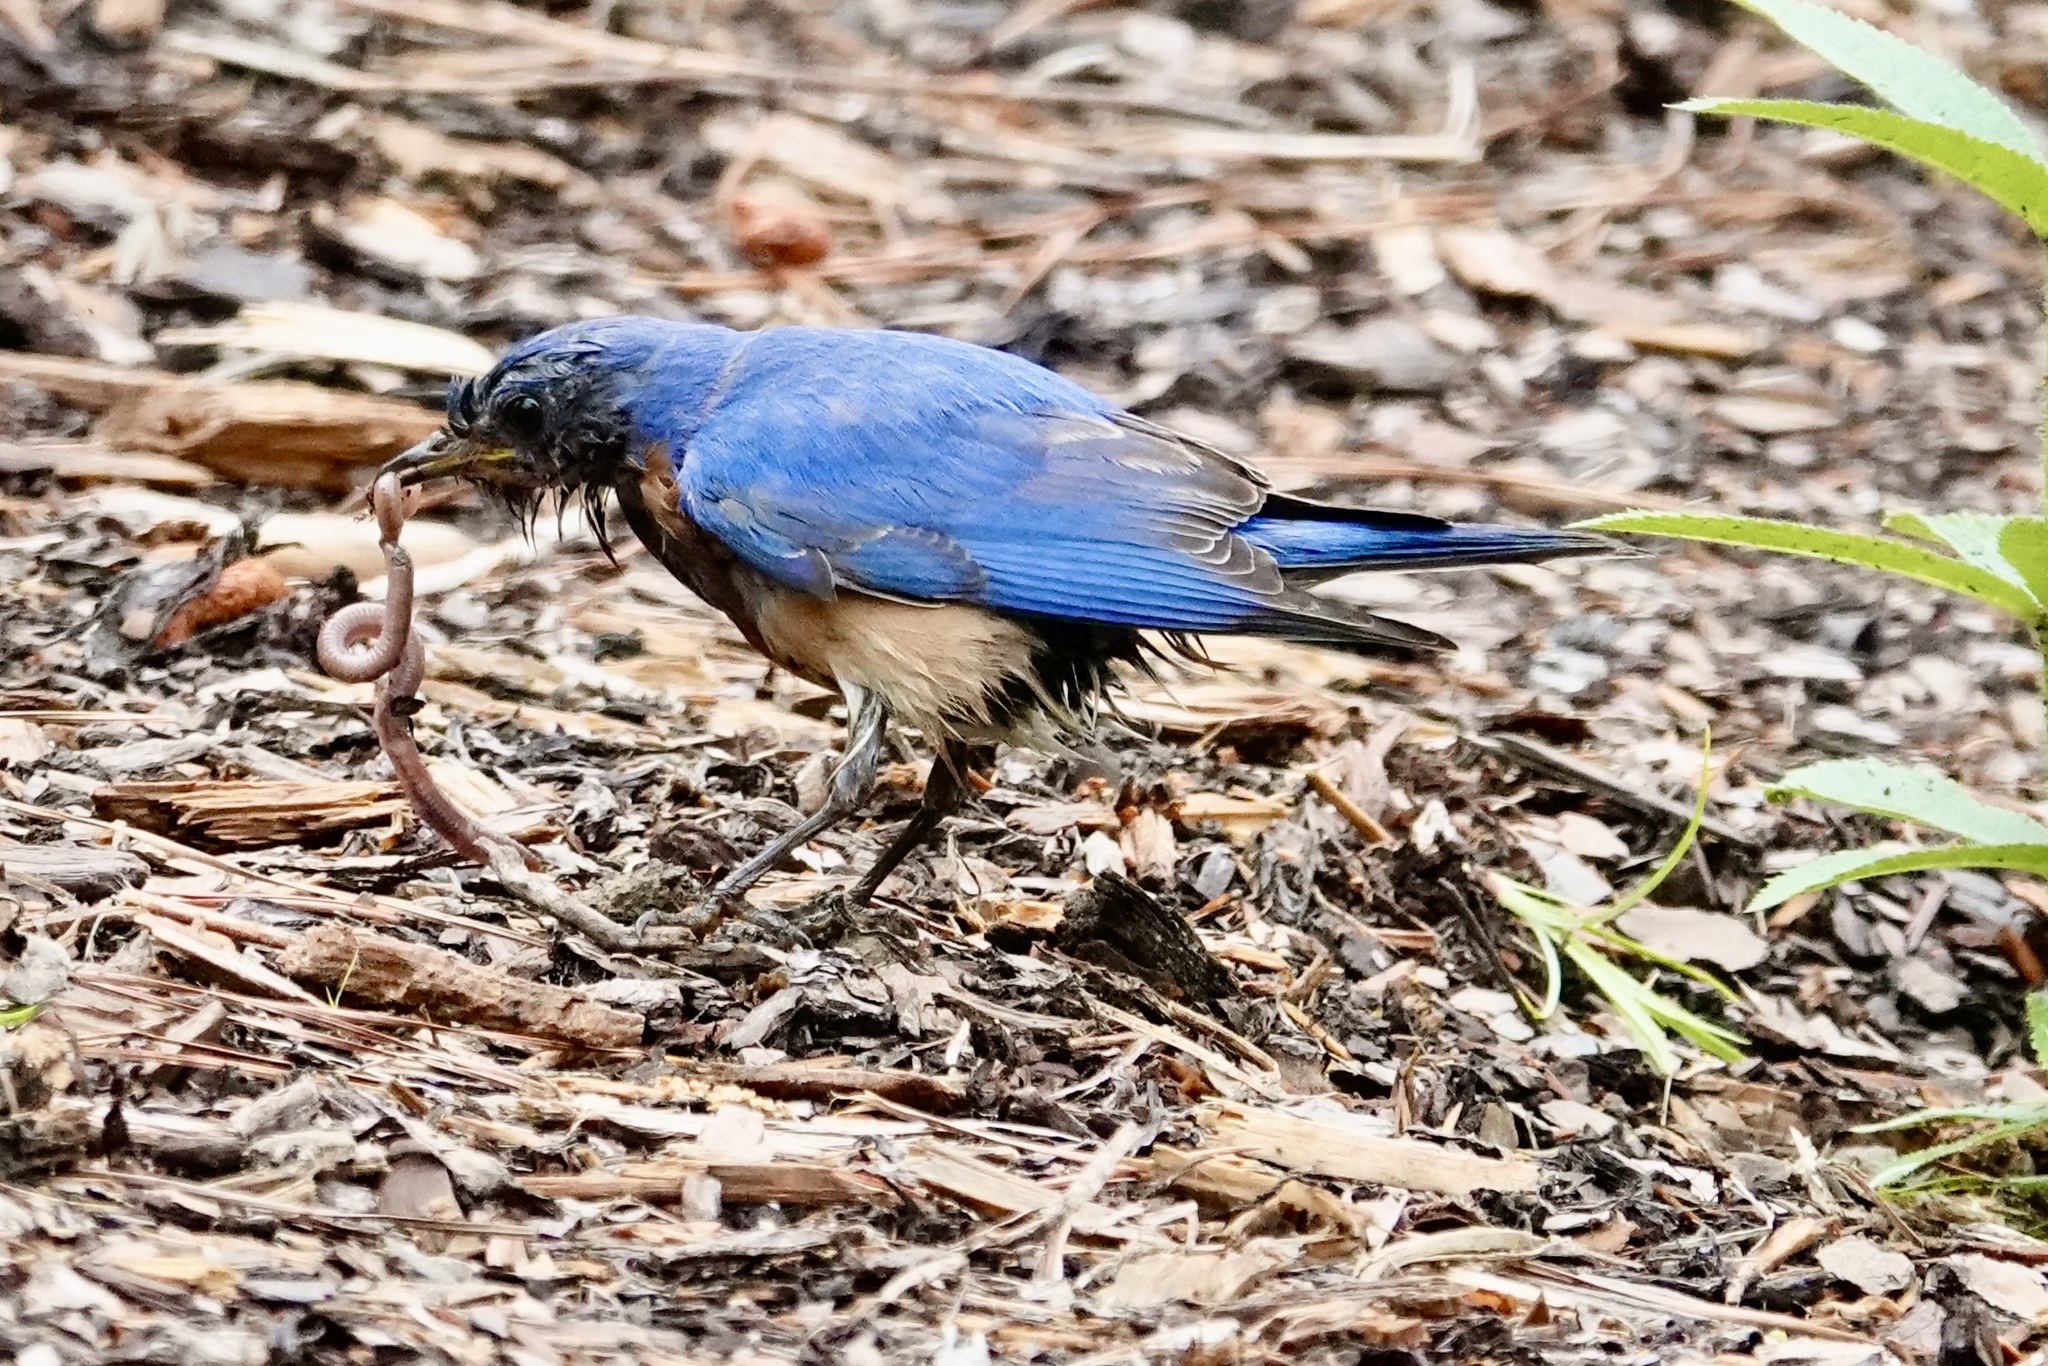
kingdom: Animalia
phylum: Chordata
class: Aves
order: Passeriformes
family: Turdidae
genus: Sialia
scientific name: Sialia sialis
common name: Eastern bluebird
